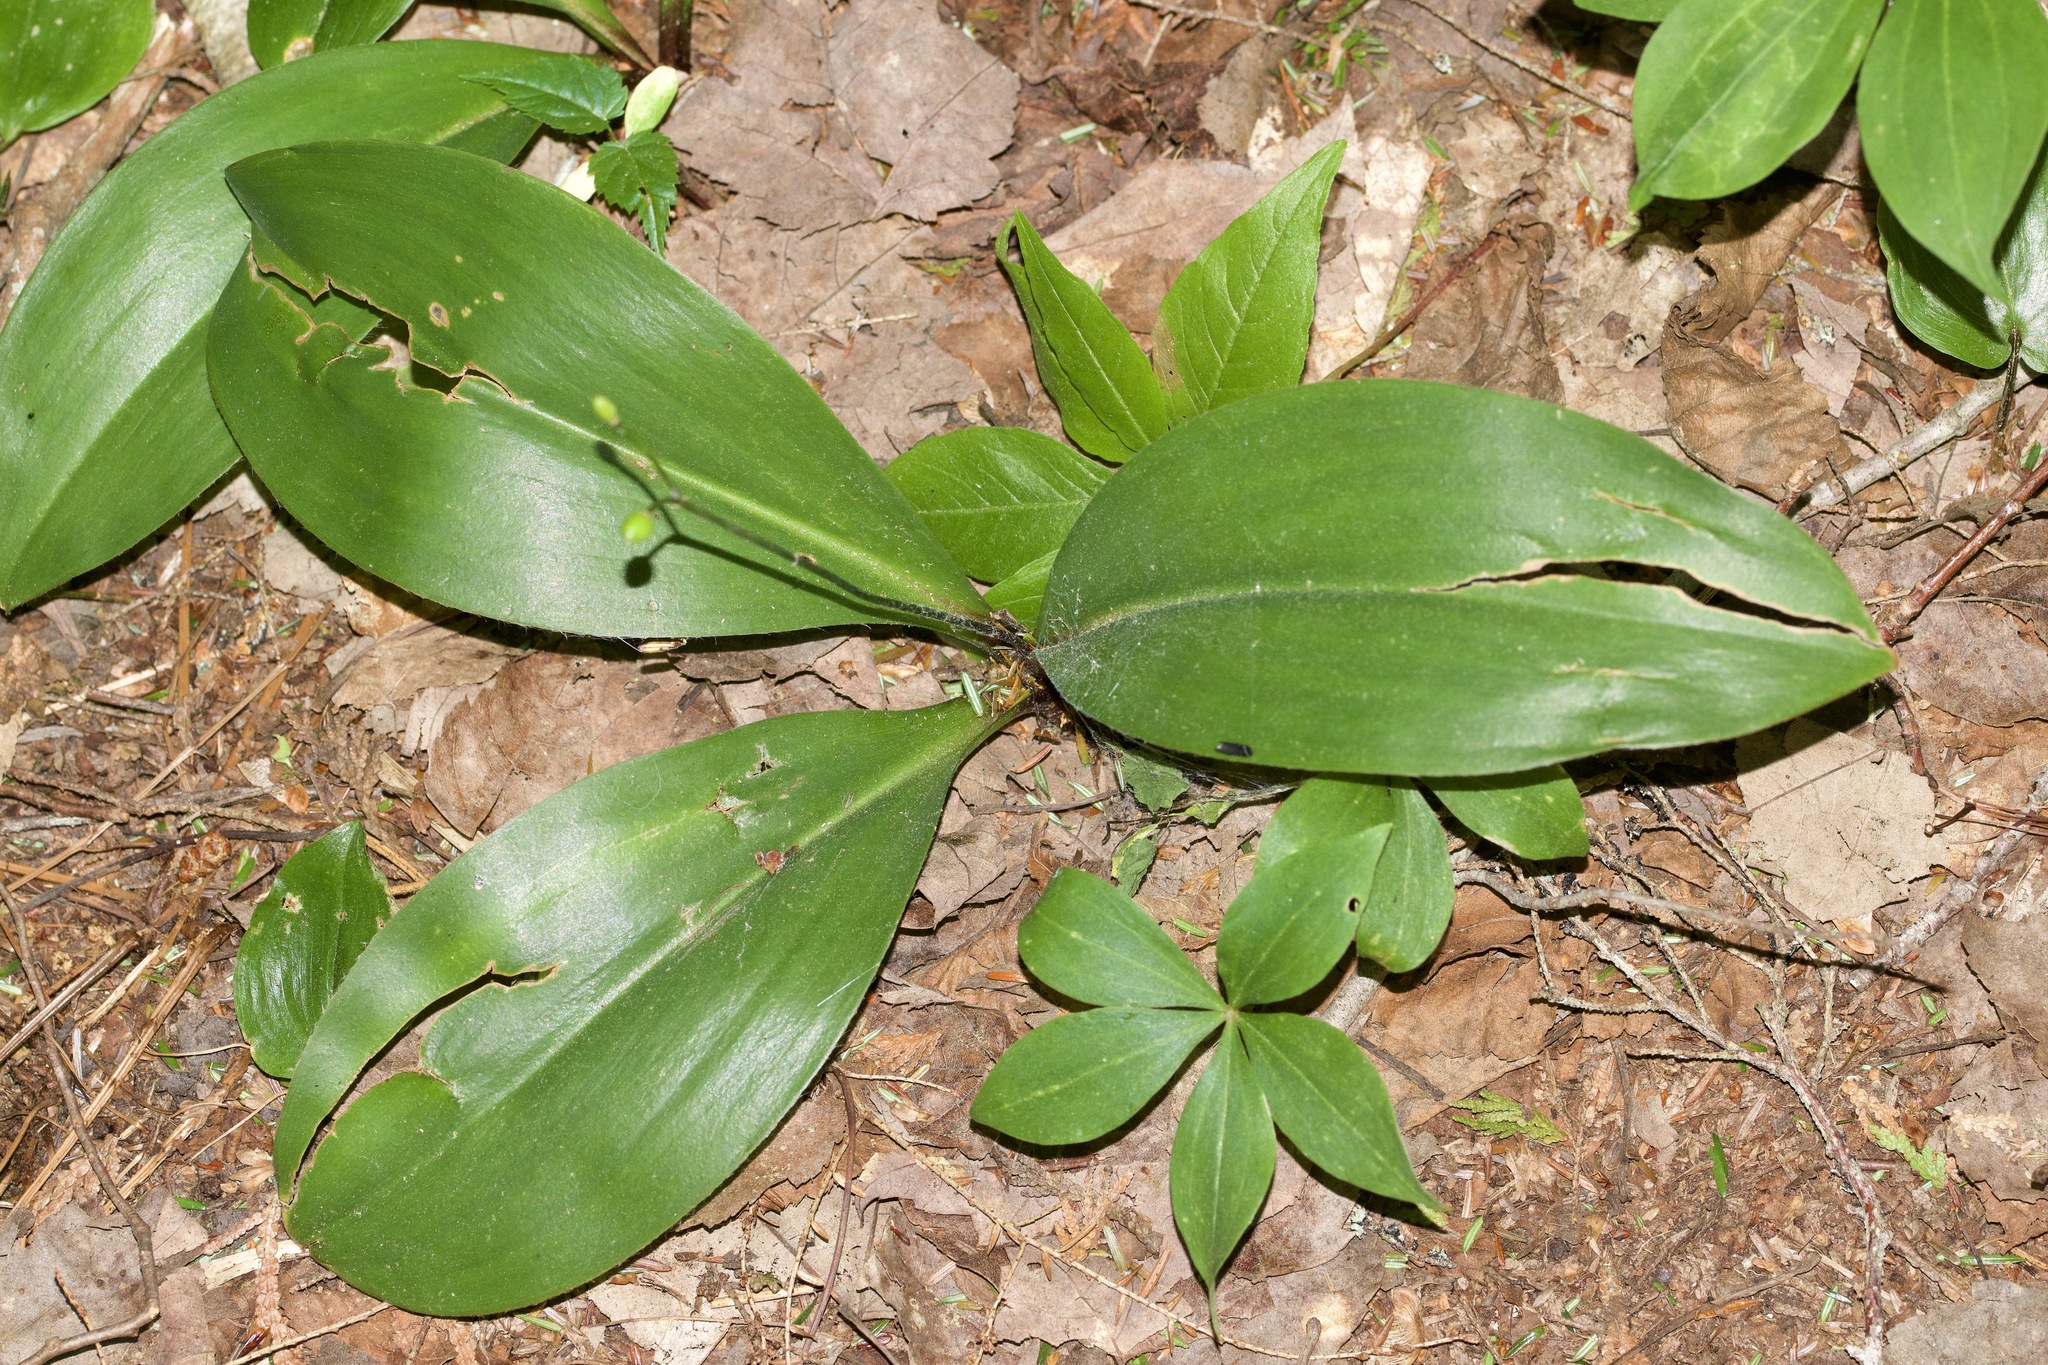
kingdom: Plantae
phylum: Tracheophyta
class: Liliopsida
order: Liliales
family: Liliaceae
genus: Clintonia
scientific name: Clintonia borealis
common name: Yellow clintonia
